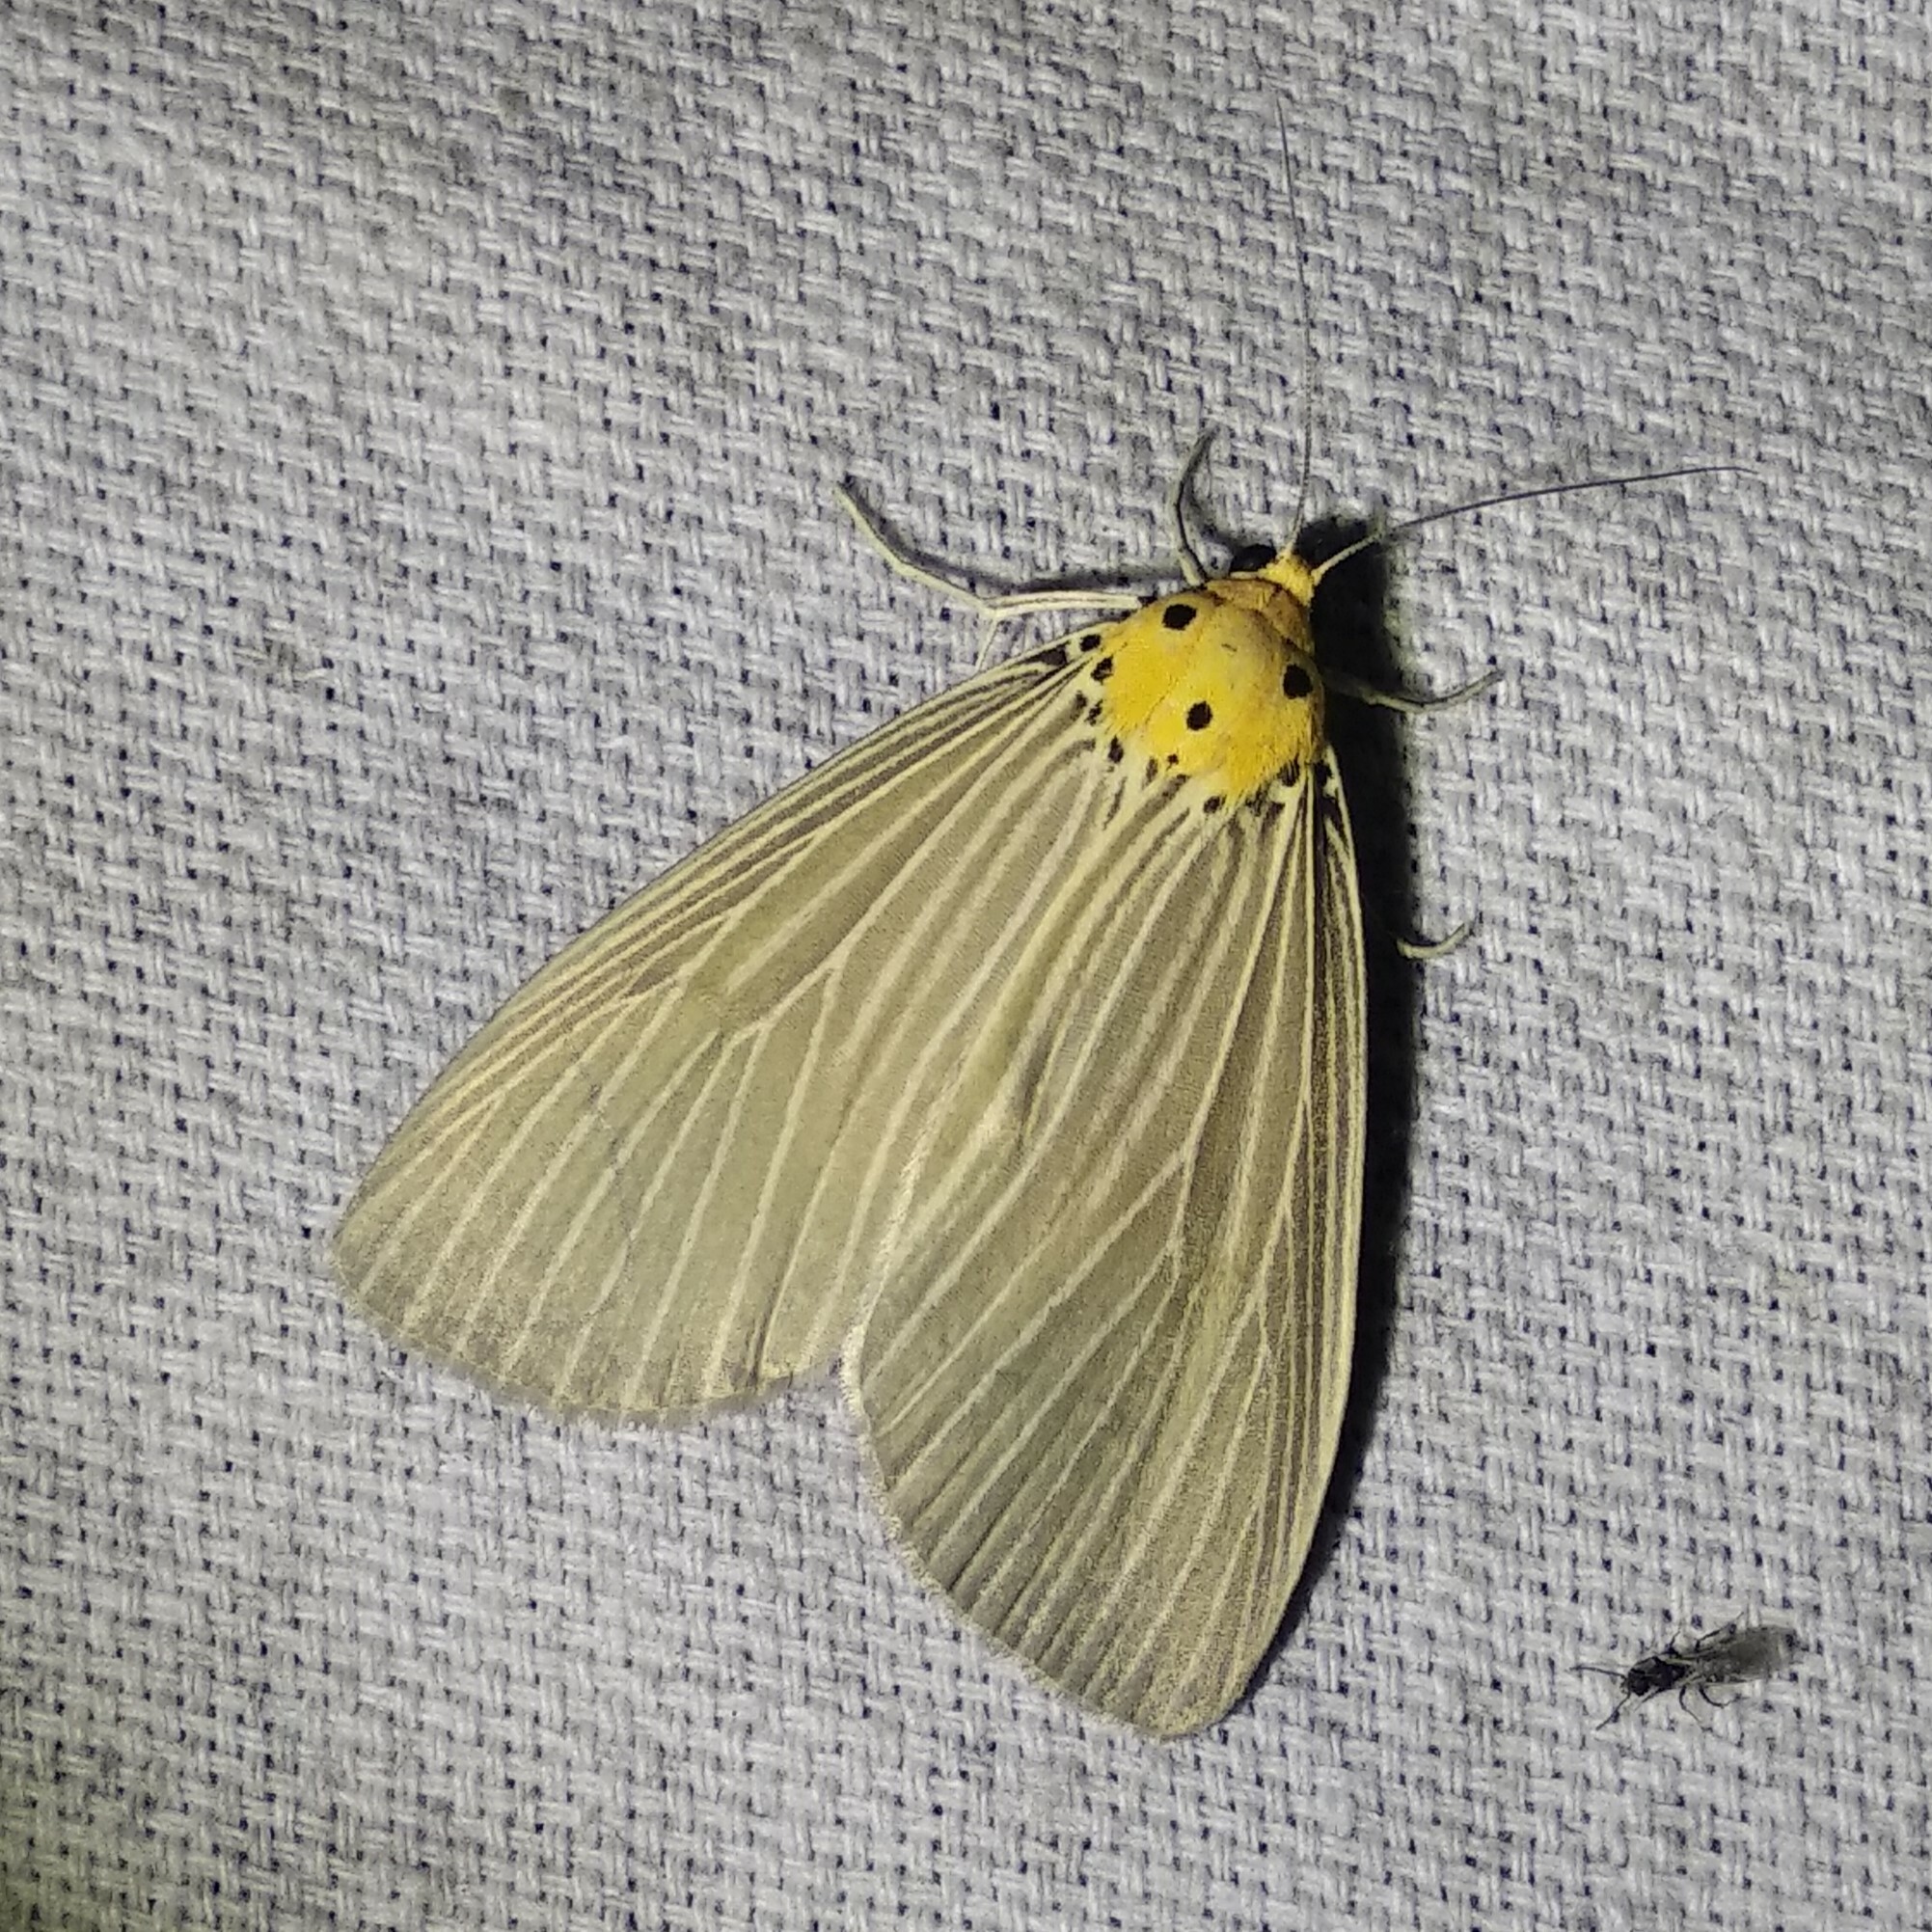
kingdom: Animalia
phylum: Arthropoda
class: Insecta
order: Lepidoptera
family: Erebidae
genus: Neochera
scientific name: Neochera dominia
